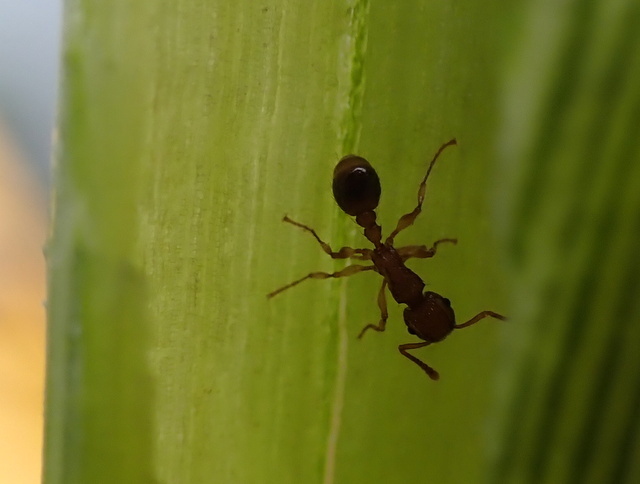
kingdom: Animalia
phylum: Arthropoda
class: Insecta
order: Hymenoptera
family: Formicidae
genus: Tetramorium
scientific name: Tetramorium bicarinatum
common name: Guinea ant
